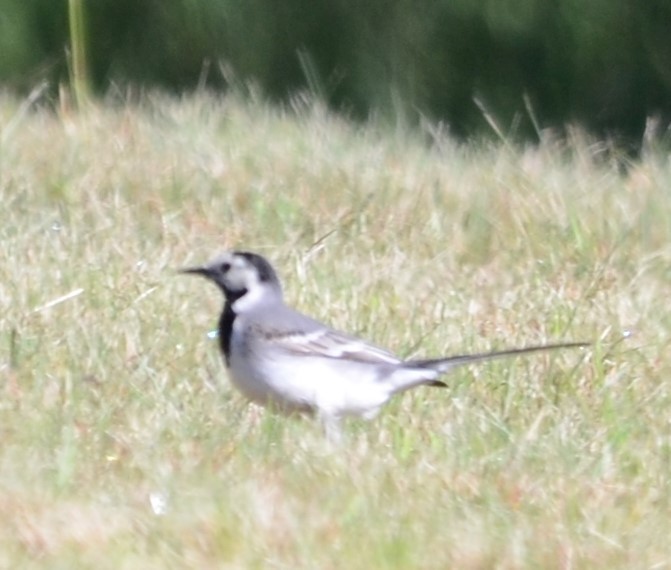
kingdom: Animalia
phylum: Chordata
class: Aves
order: Passeriformes
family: Motacillidae
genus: Motacilla
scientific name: Motacilla alba
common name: White wagtail
